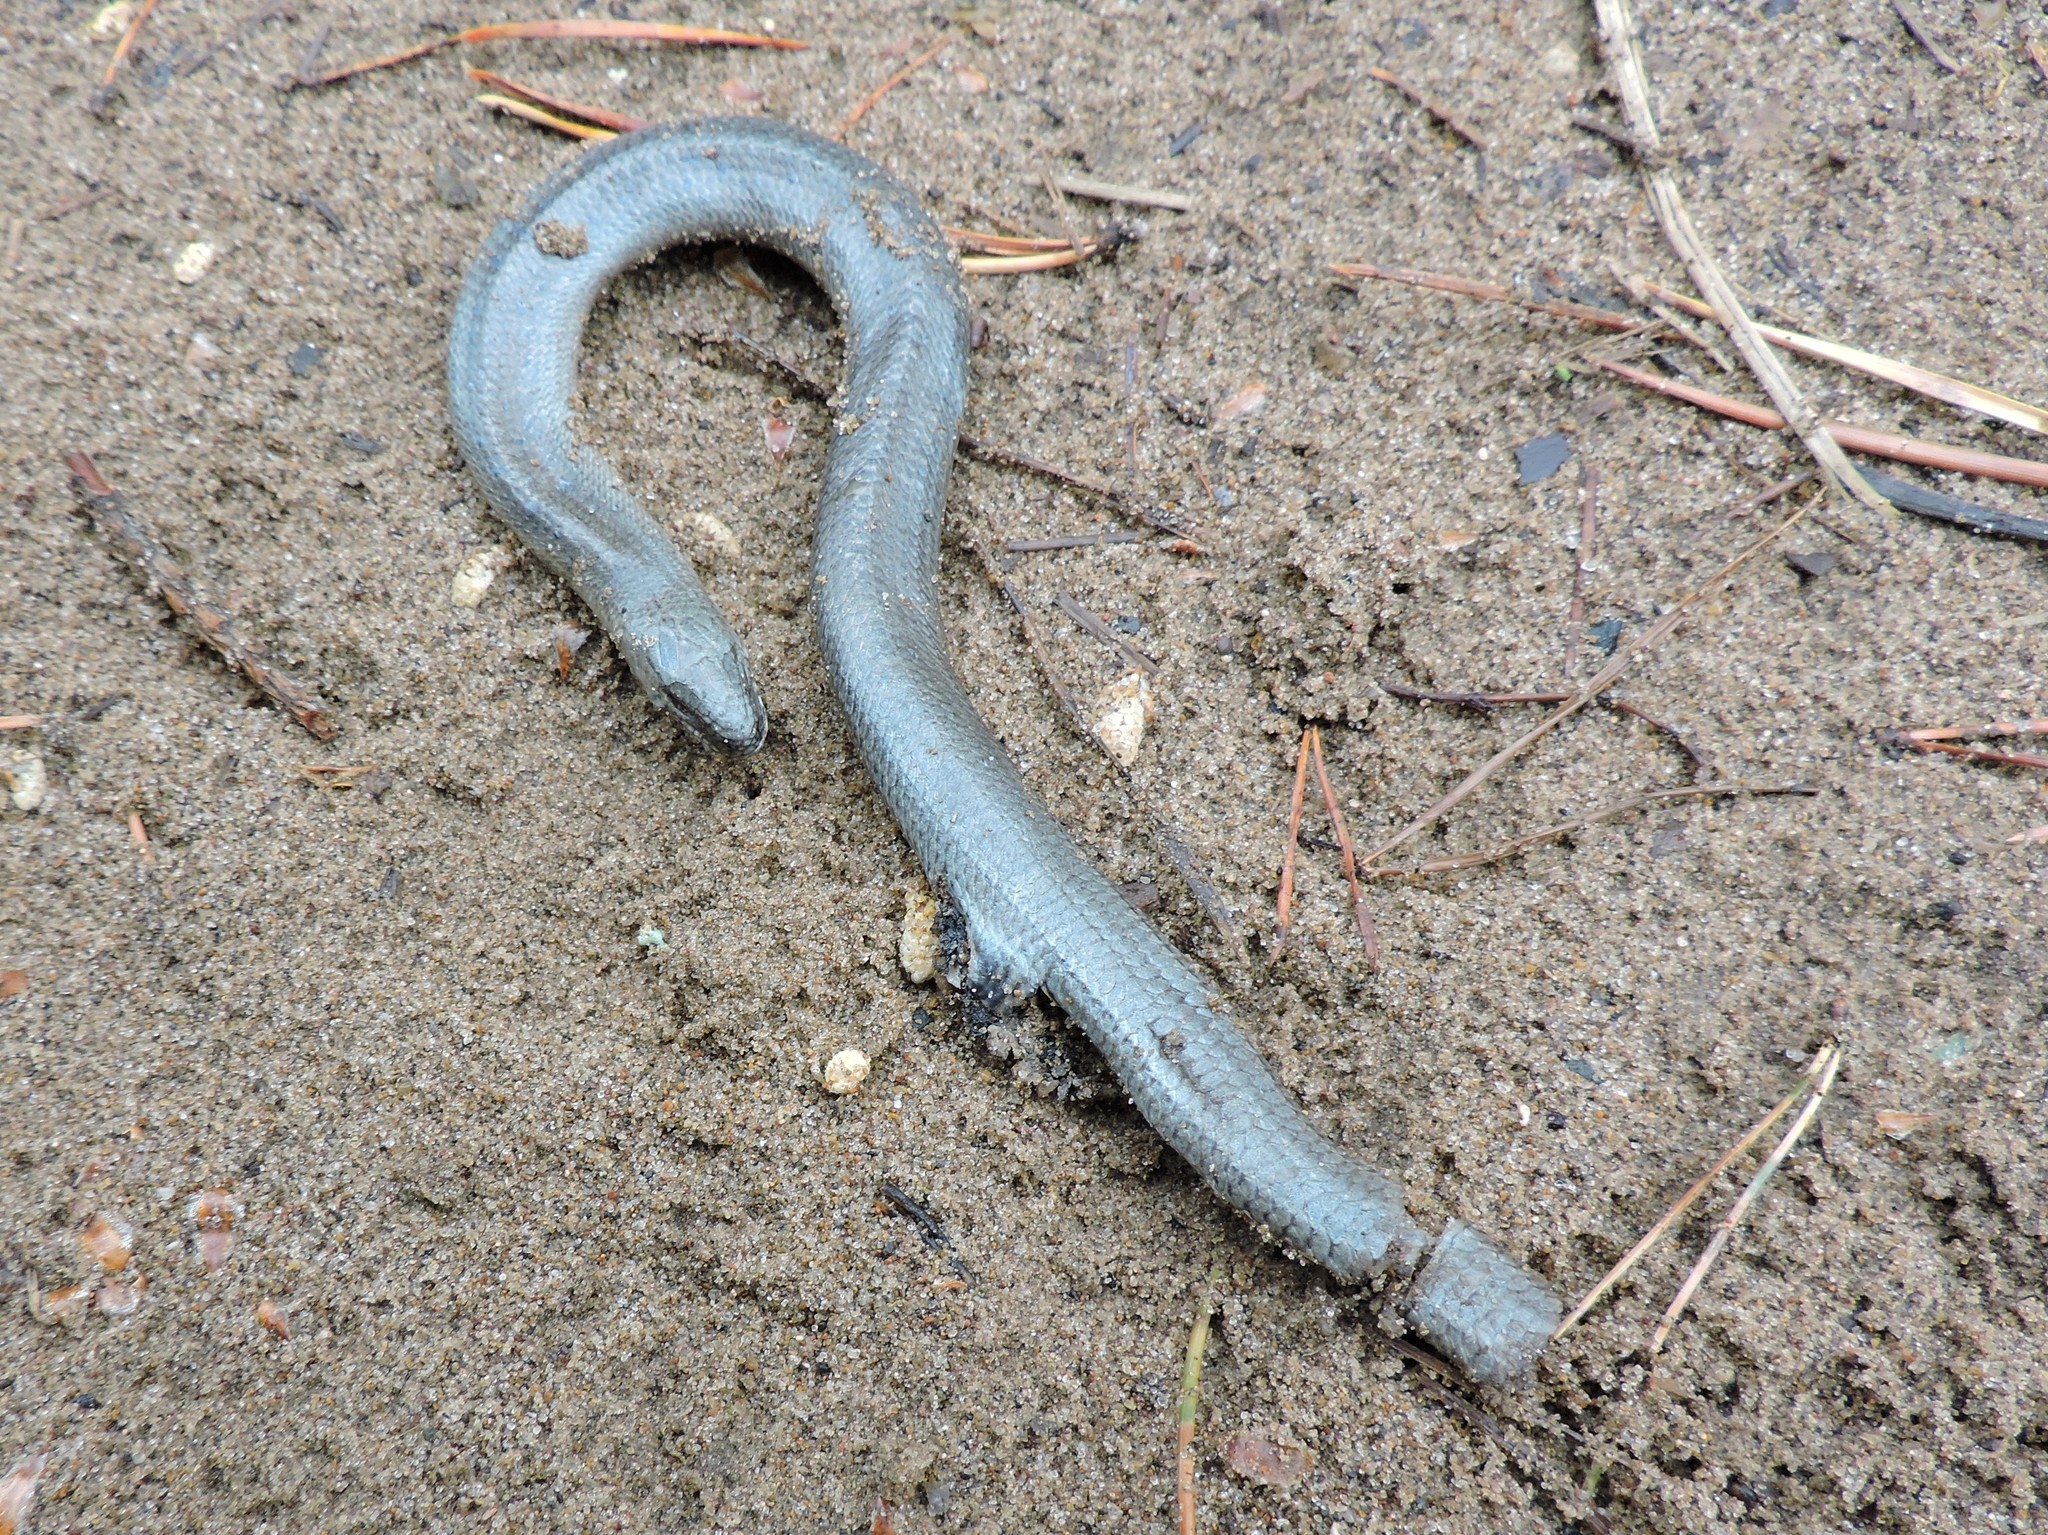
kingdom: Animalia
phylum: Chordata
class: Squamata
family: Anguidae
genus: Anguis
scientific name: Anguis colchica
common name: Slow worm
